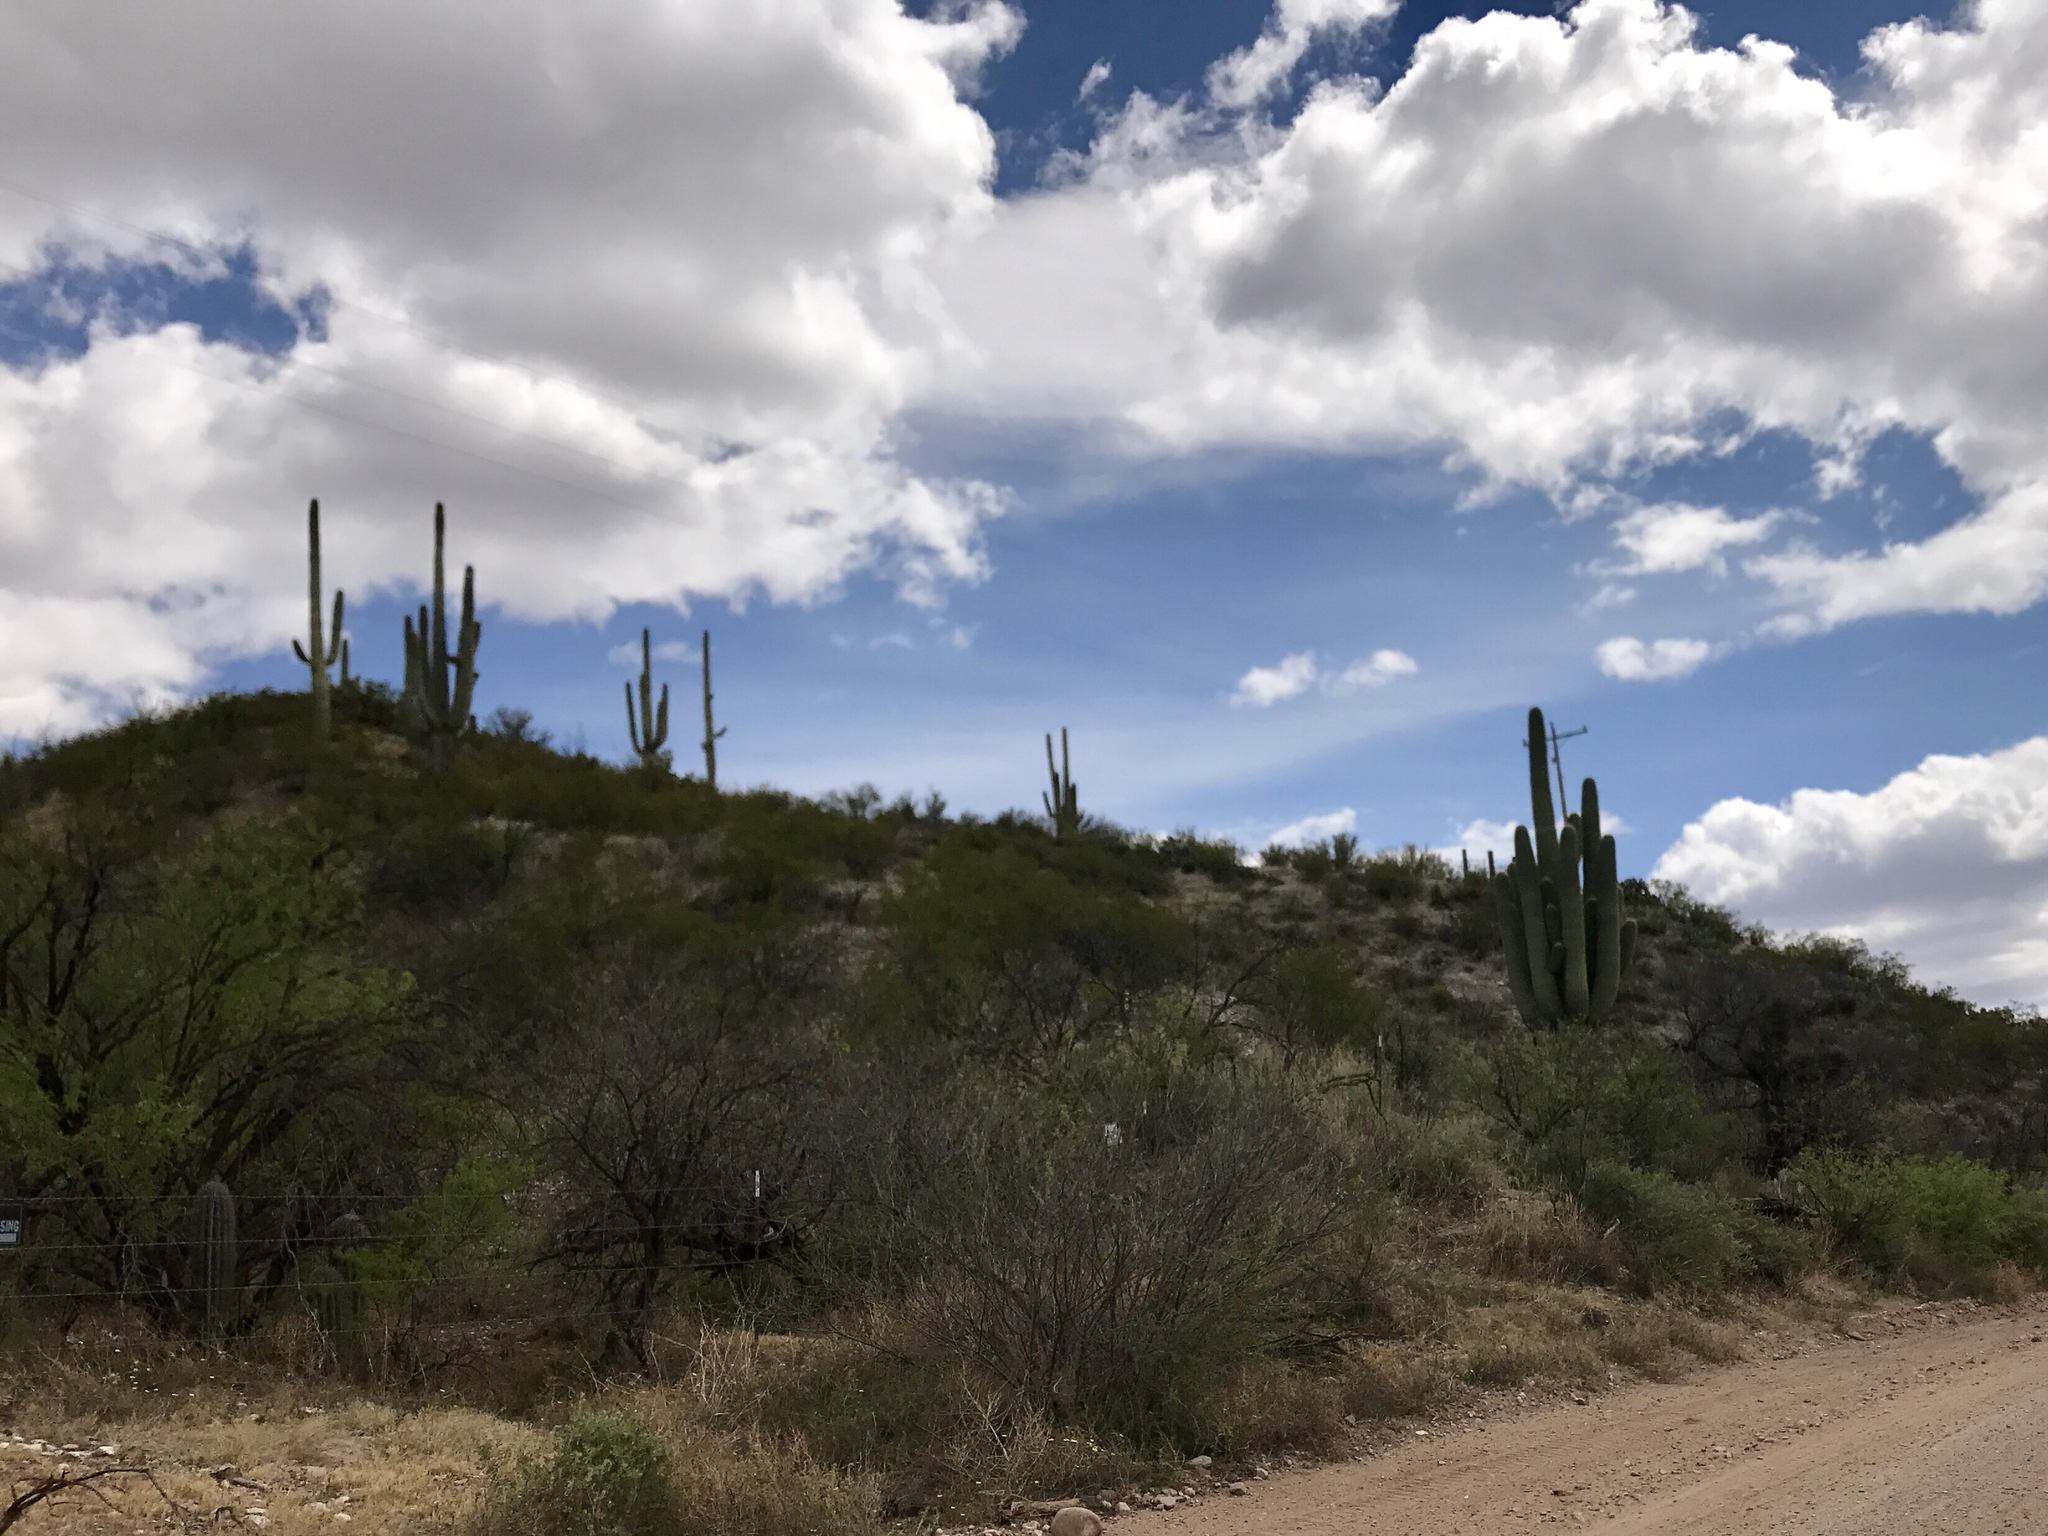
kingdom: Plantae
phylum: Tracheophyta
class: Magnoliopsida
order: Caryophyllales
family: Cactaceae
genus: Carnegiea
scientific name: Carnegiea gigantea
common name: Saguaro
